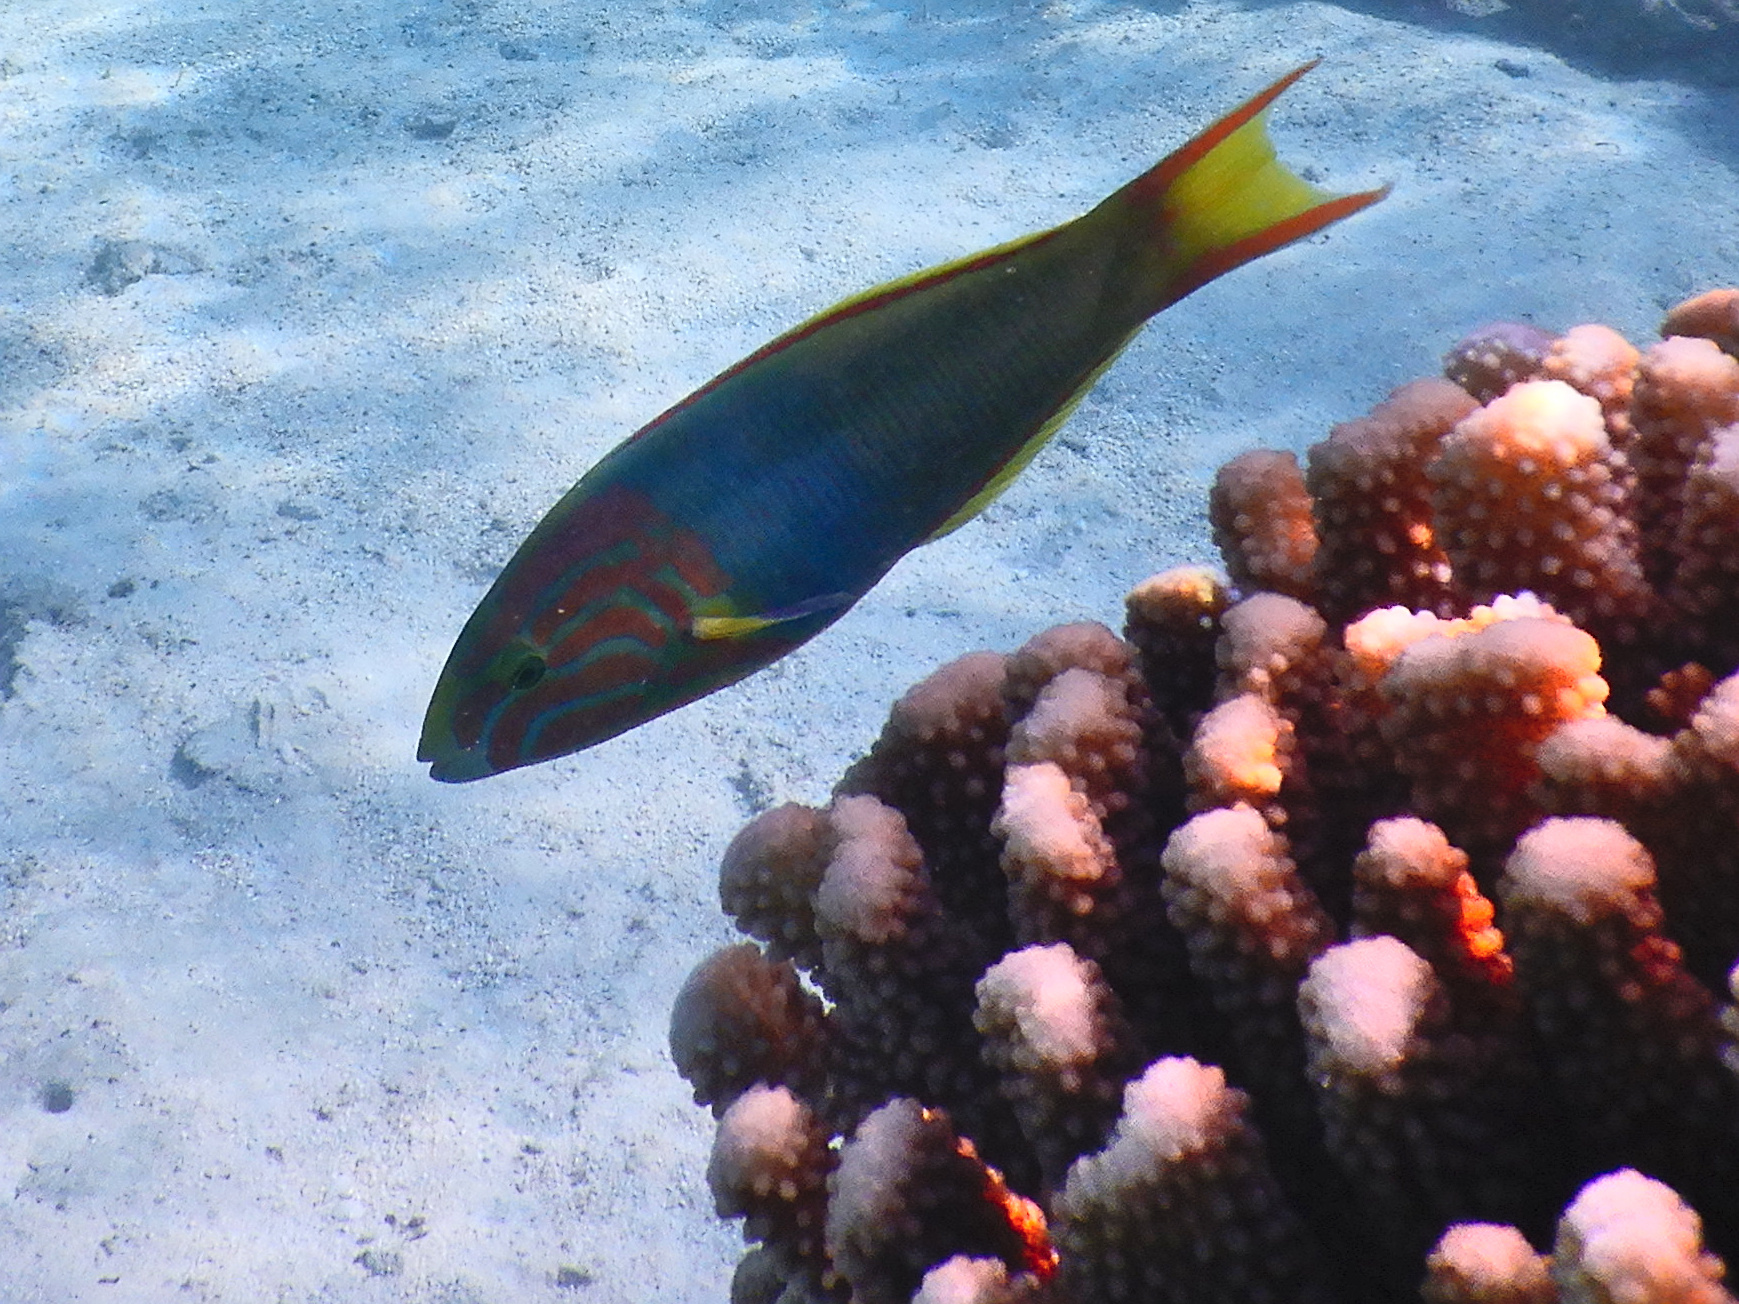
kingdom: Animalia
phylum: Chordata
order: Perciformes
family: Labridae
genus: Thalassoma
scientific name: Thalassoma lutescens
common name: Green moon wrasse
